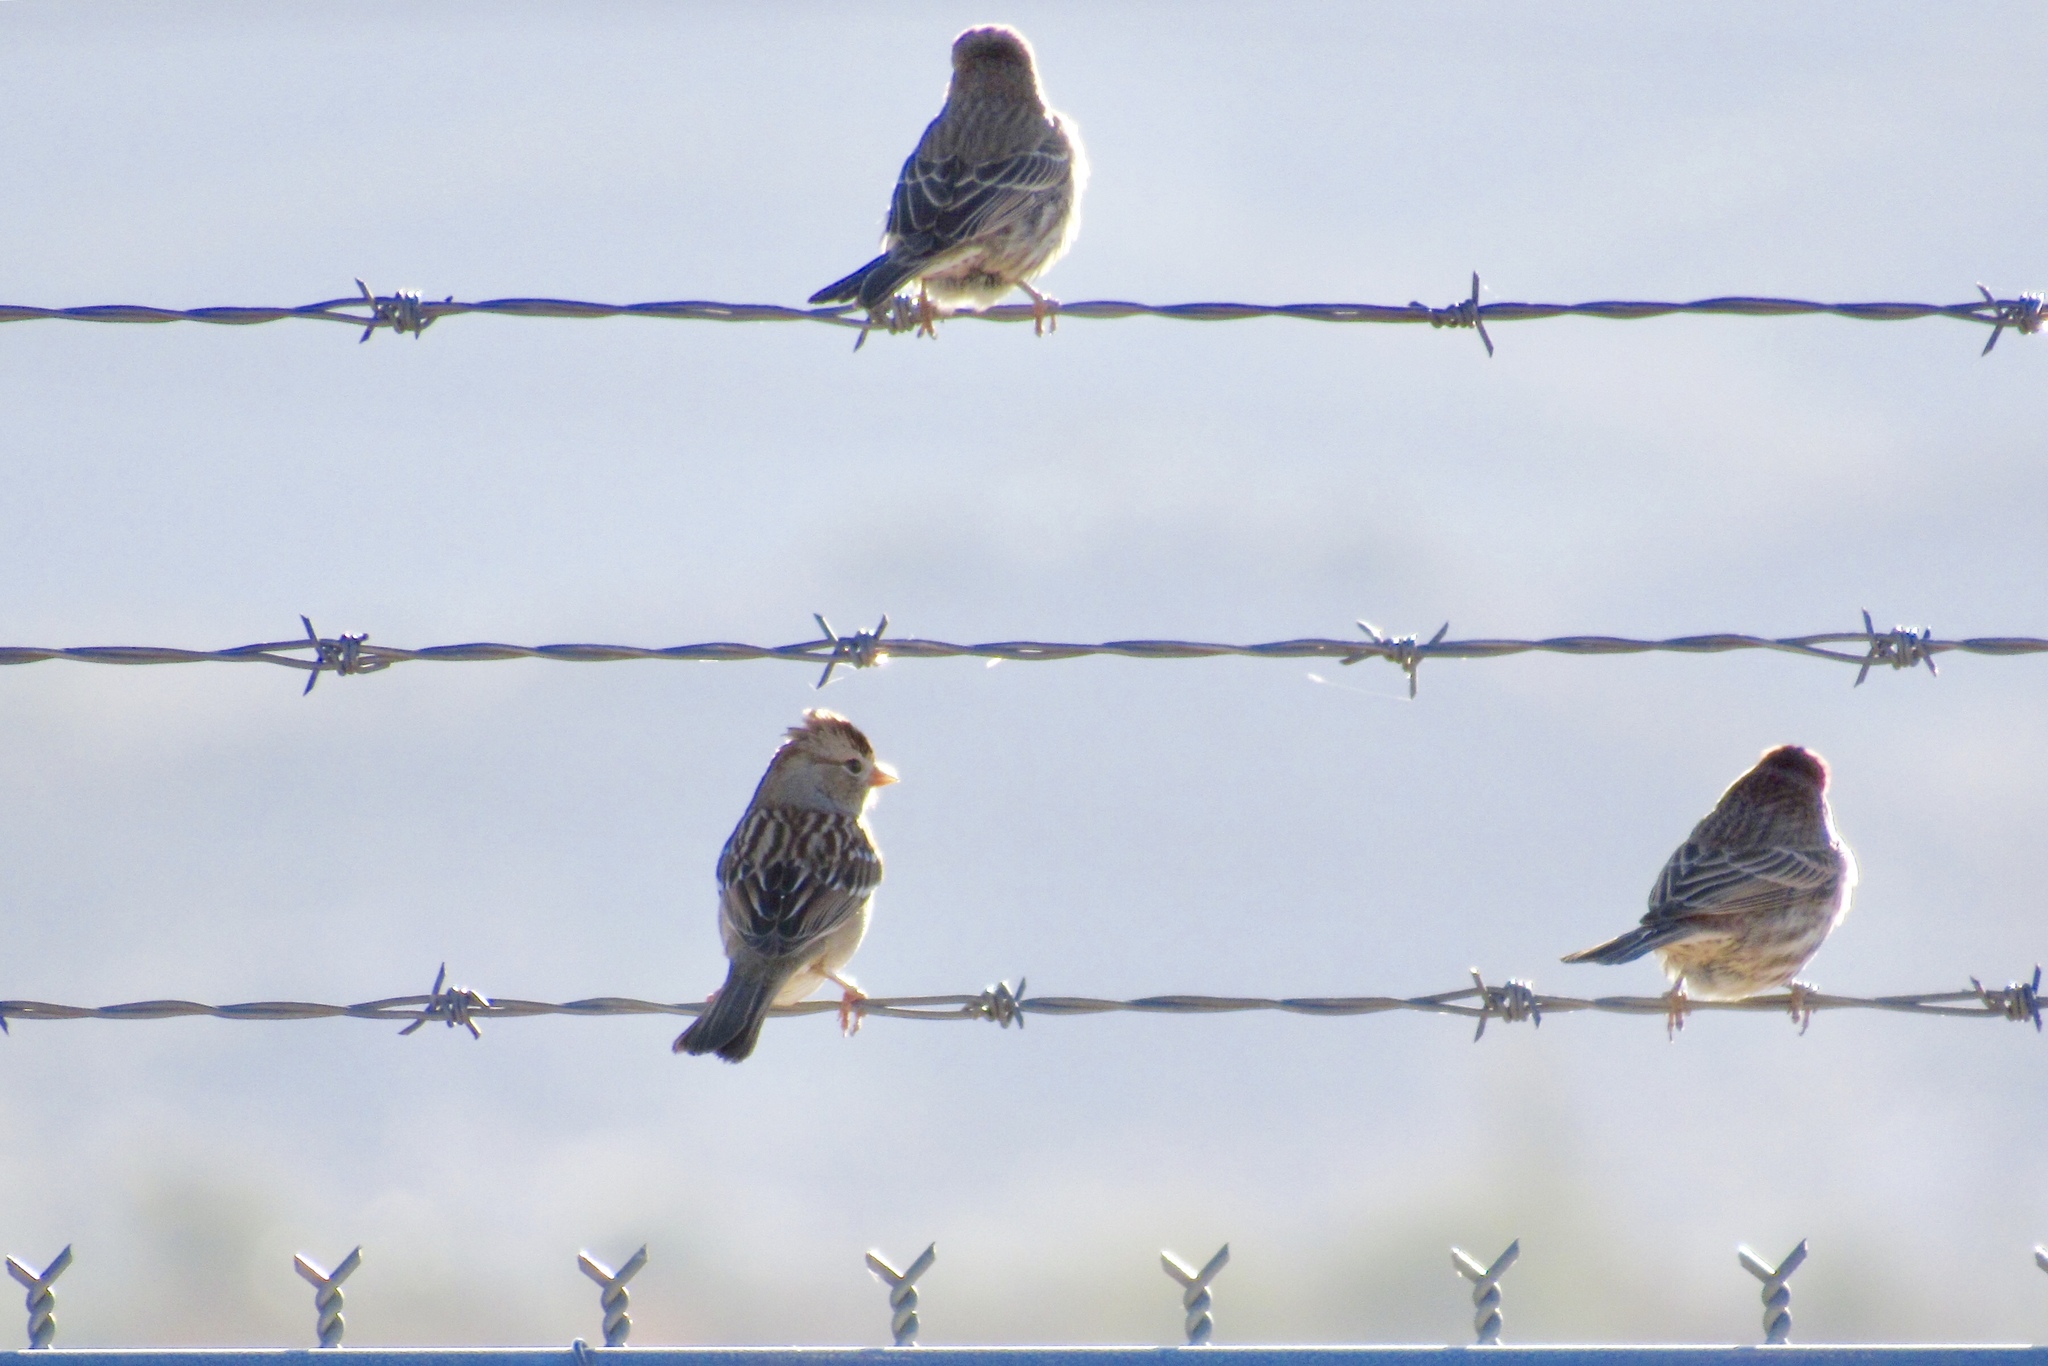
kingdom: Animalia
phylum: Chordata
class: Aves
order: Passeriformes
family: Passerellidae
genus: Zonotrichia
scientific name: Zonotrichia leucophrys
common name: White-crowned sparrow
